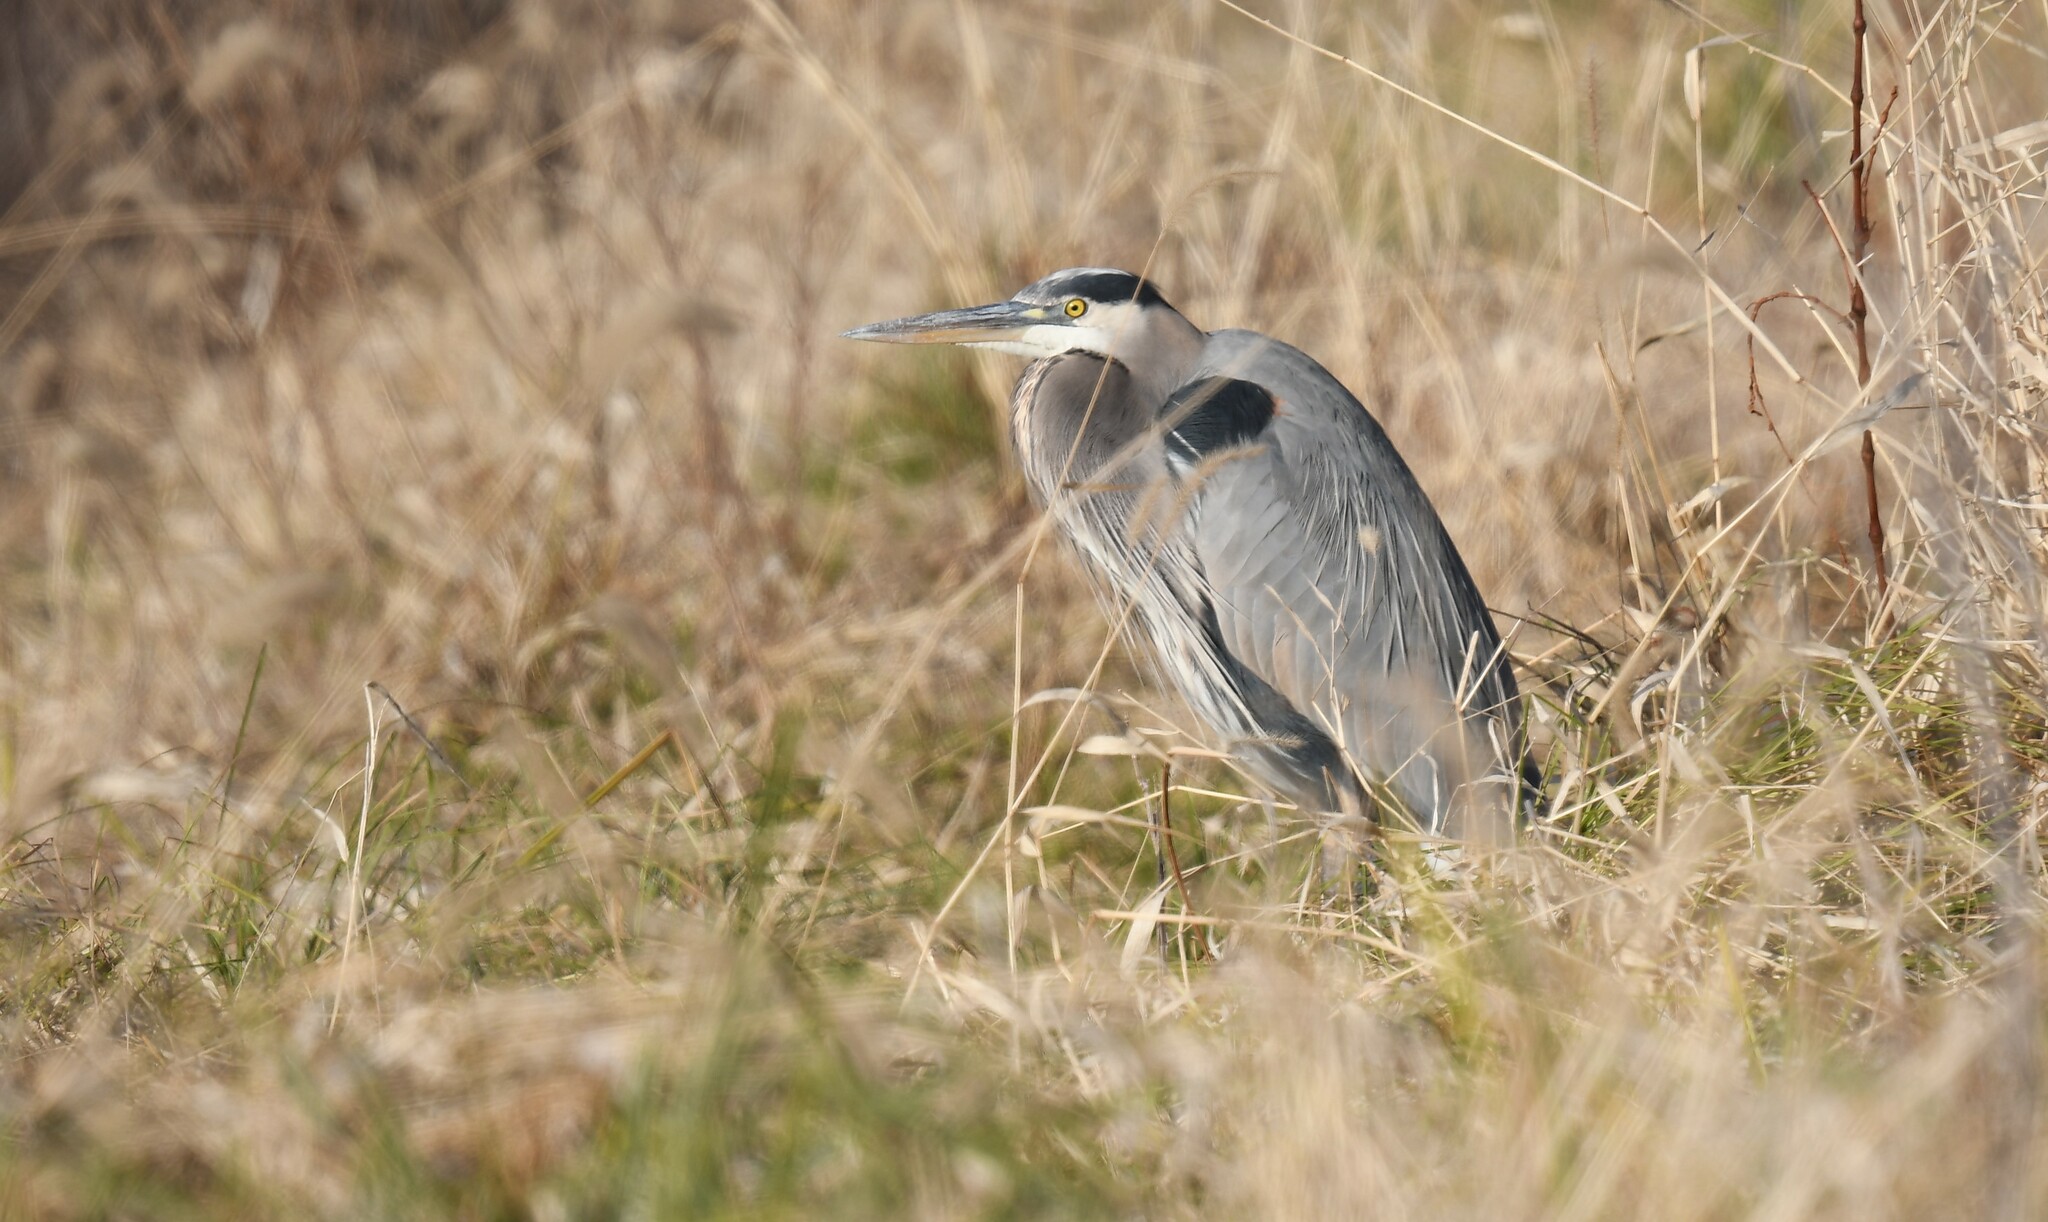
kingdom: Animalia
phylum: Chordata
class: Aves
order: Pelecaniformes
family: Ardeidae
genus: Ardea
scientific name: Ardea herodias
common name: Great blue heron
